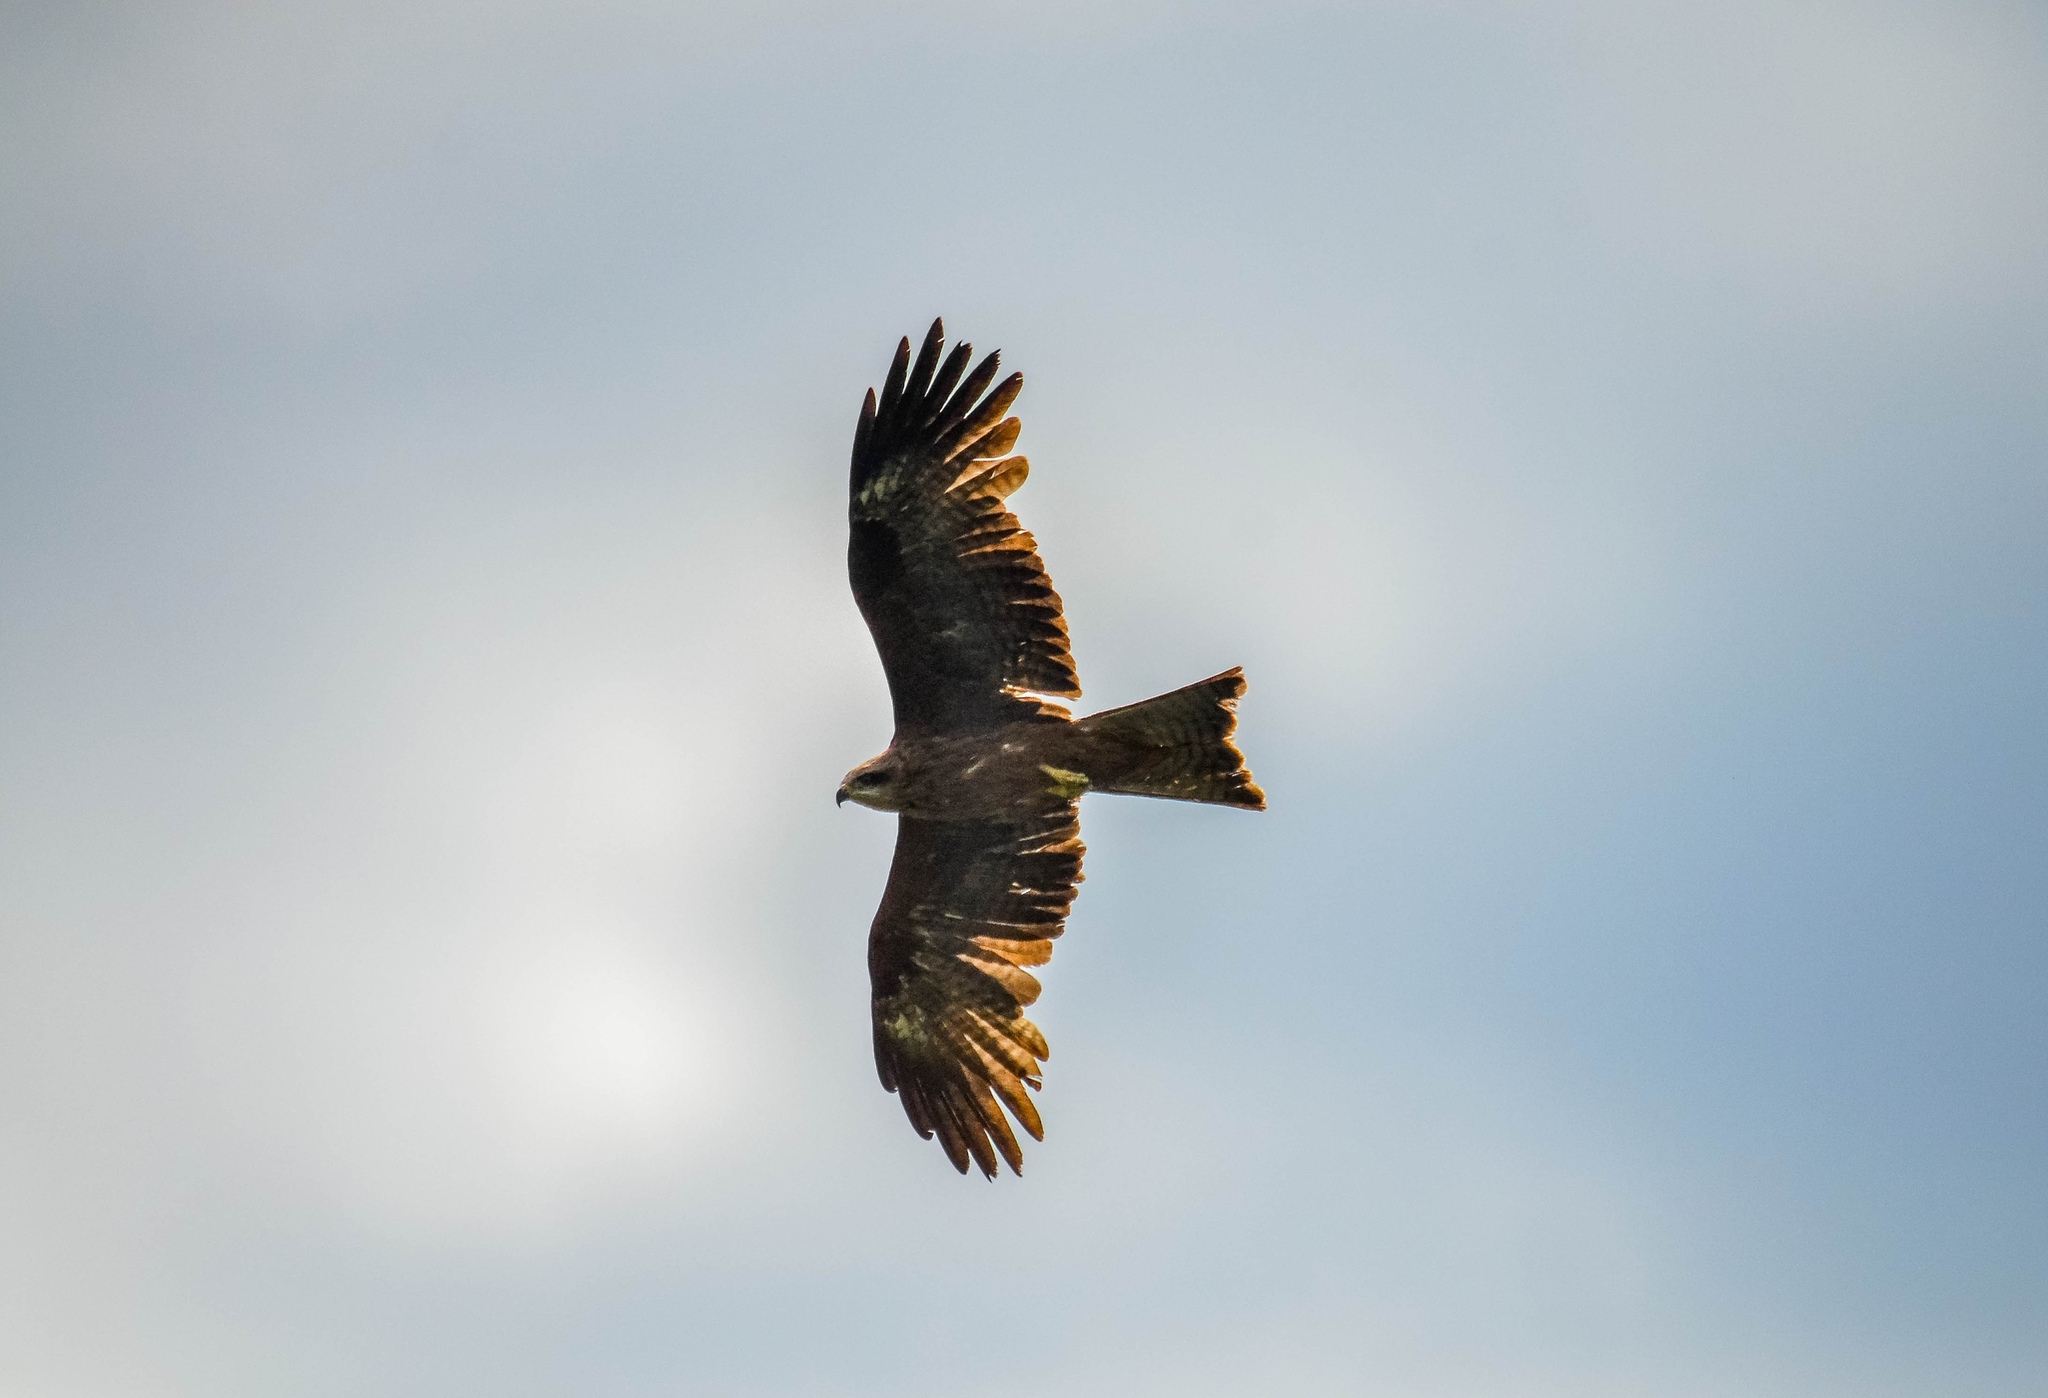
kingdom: Animalia
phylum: Chordata
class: Aves
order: Accipitriformes
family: Accipitridae
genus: Milvus
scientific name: Milvus migrans
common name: Black kite
